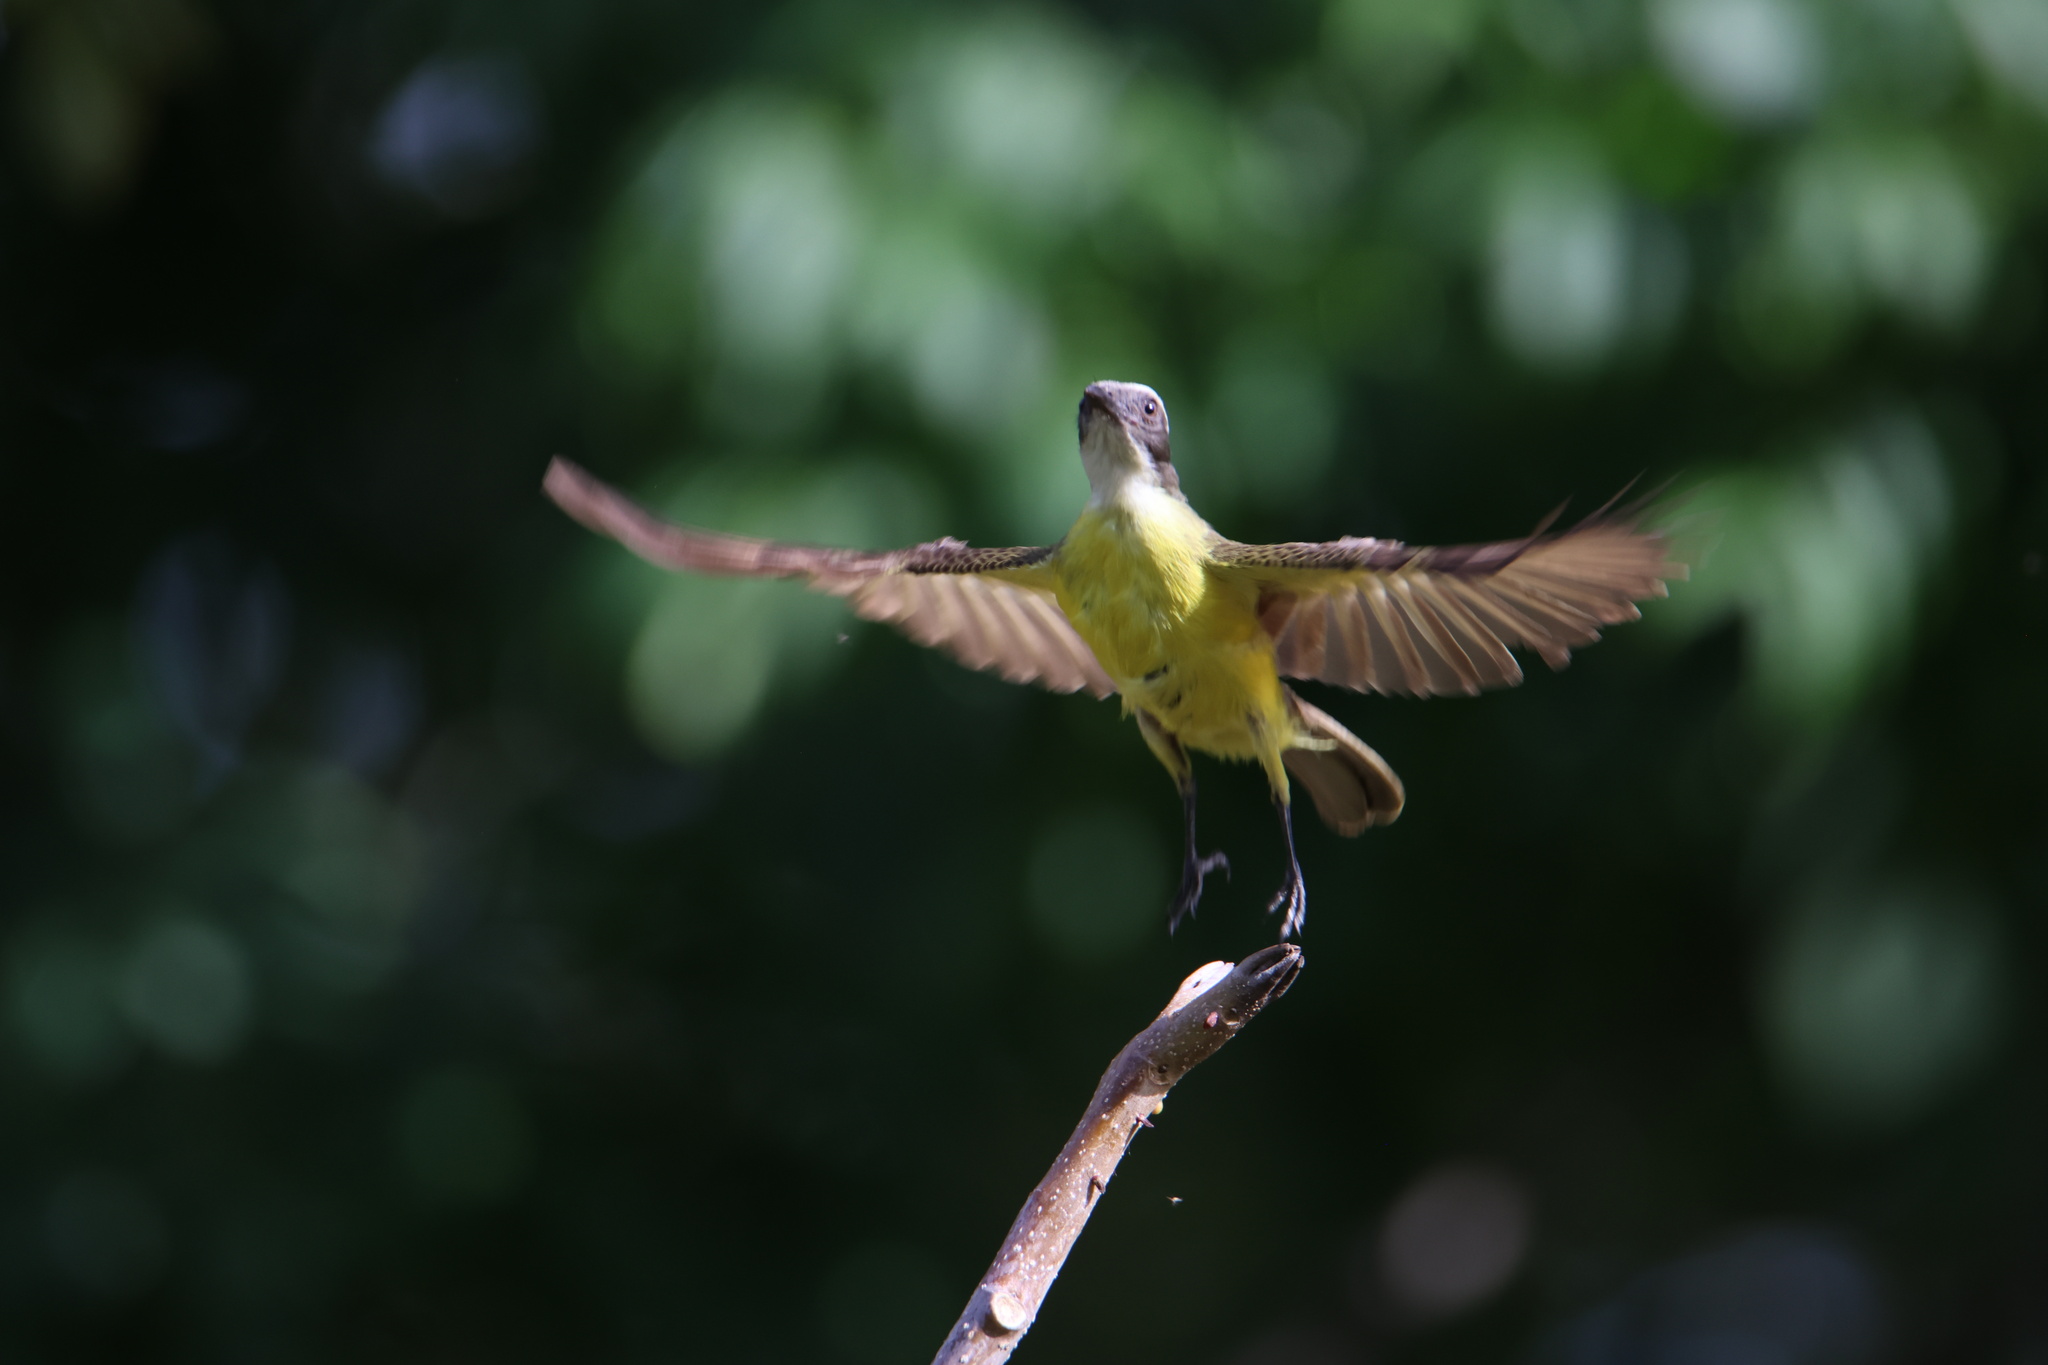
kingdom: Animalia
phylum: Chordata
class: Aves
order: Passeriformes
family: Tyrannidae
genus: Myiozetetes
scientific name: Myiozetetes similis
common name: Social flycatcher
